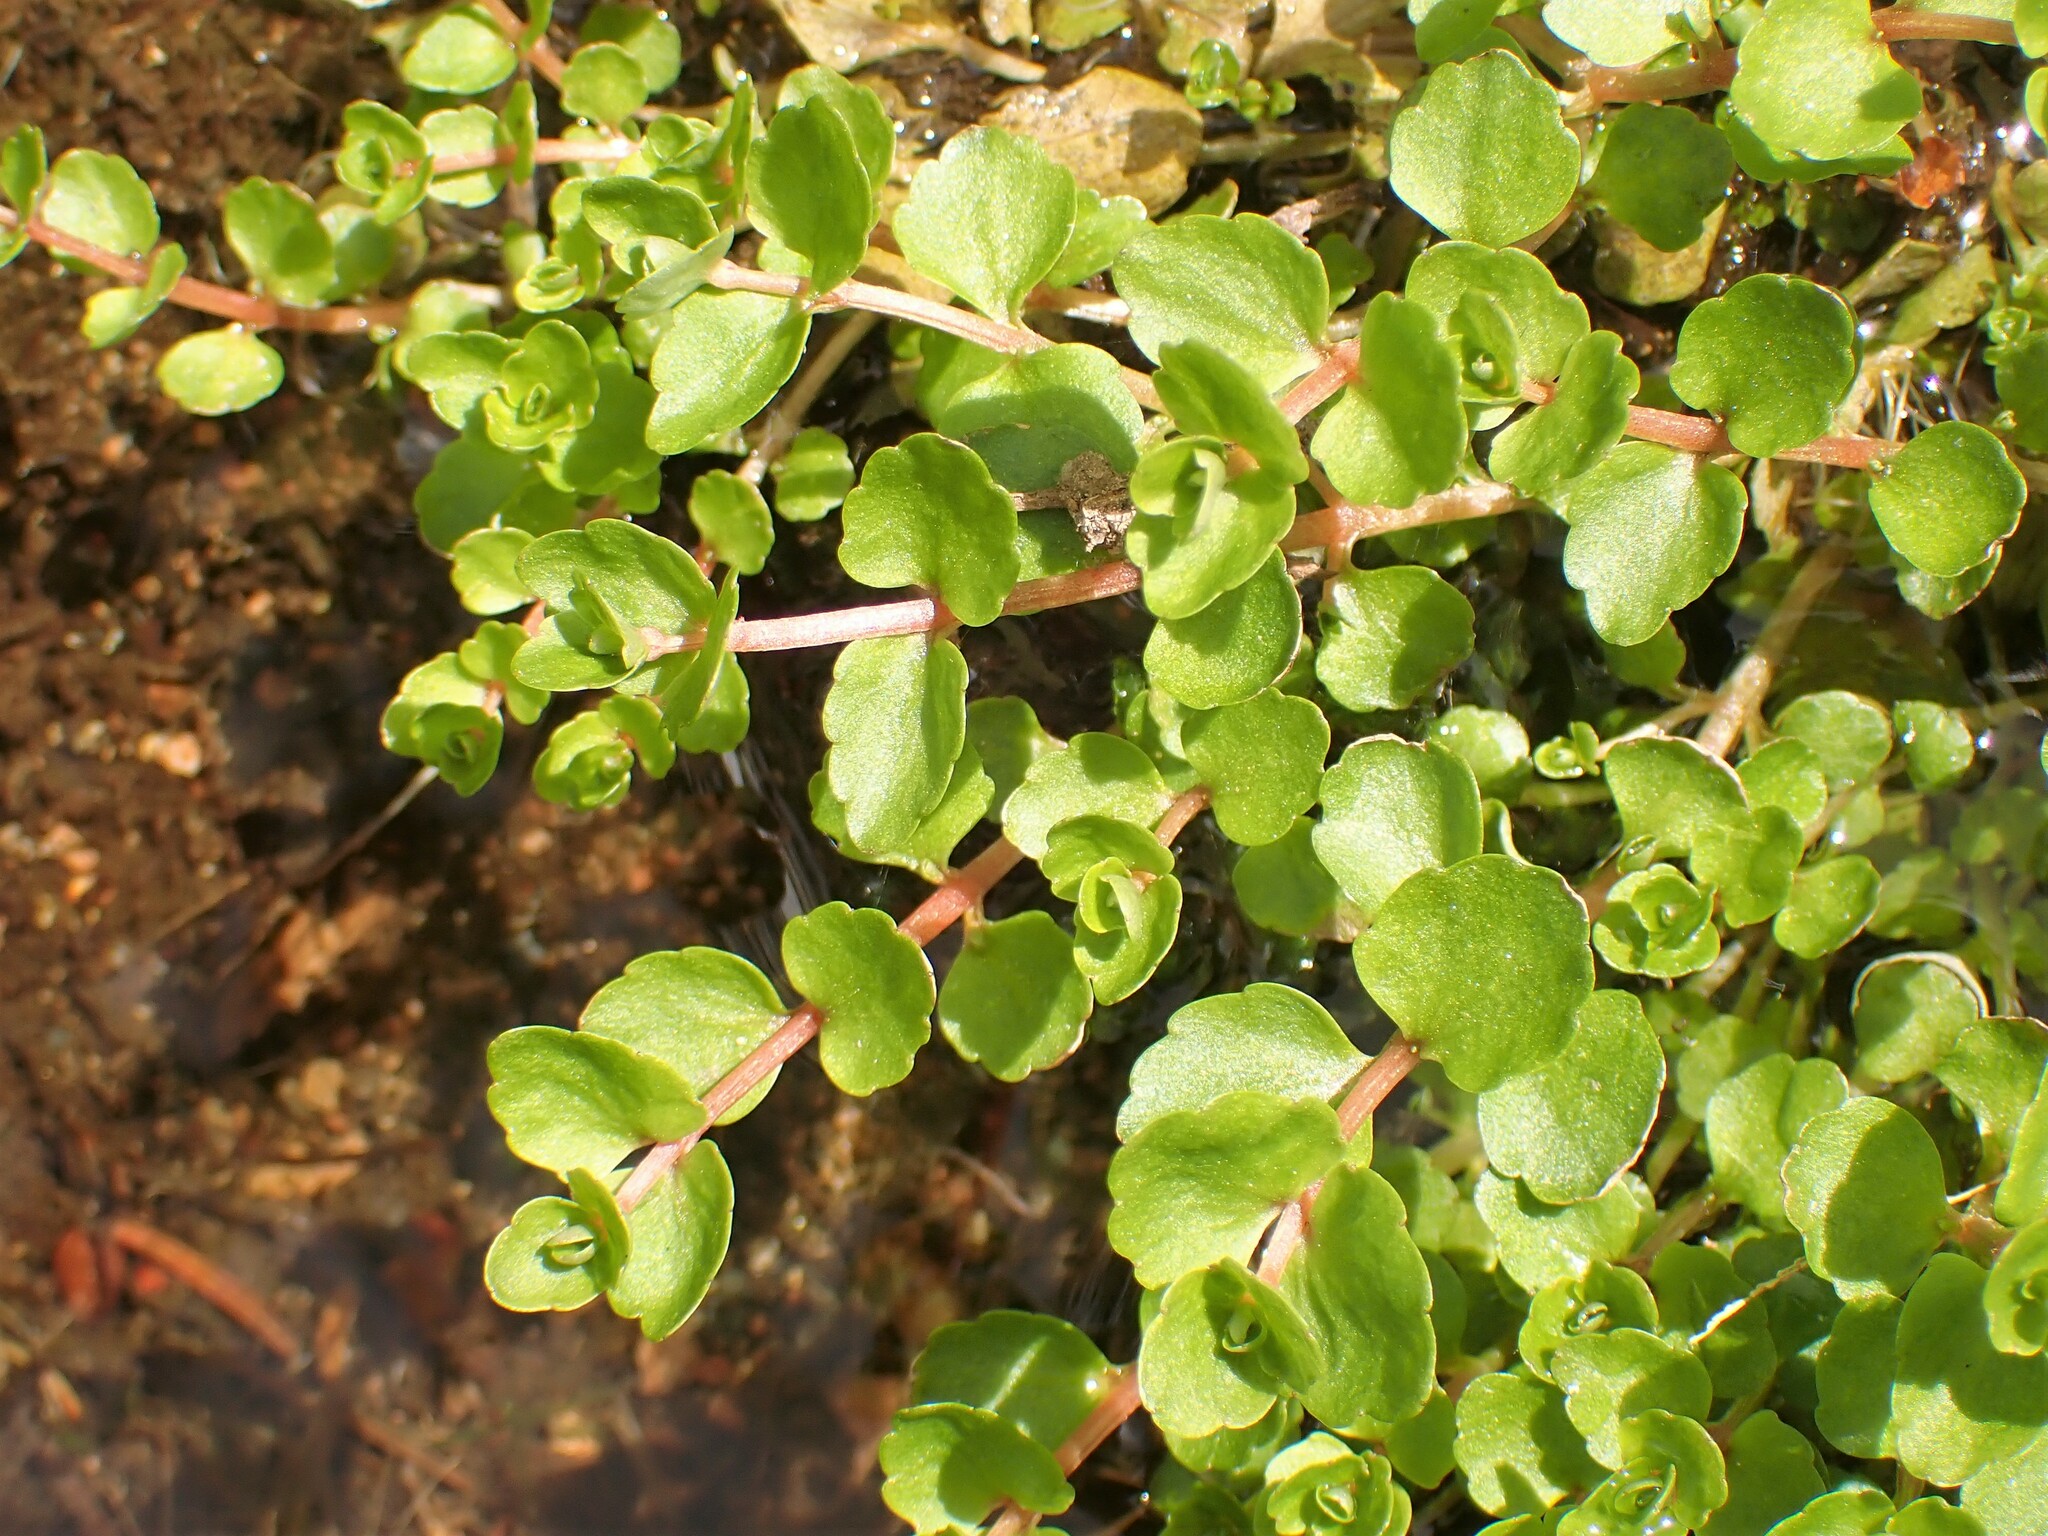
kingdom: Plantae
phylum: Tracheophyta
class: Magnoliopsida
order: Saxifragales
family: Saxifragaceae
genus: Chrysosplenium
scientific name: Chrysosplenium americanum
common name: American golden-saxifrage
